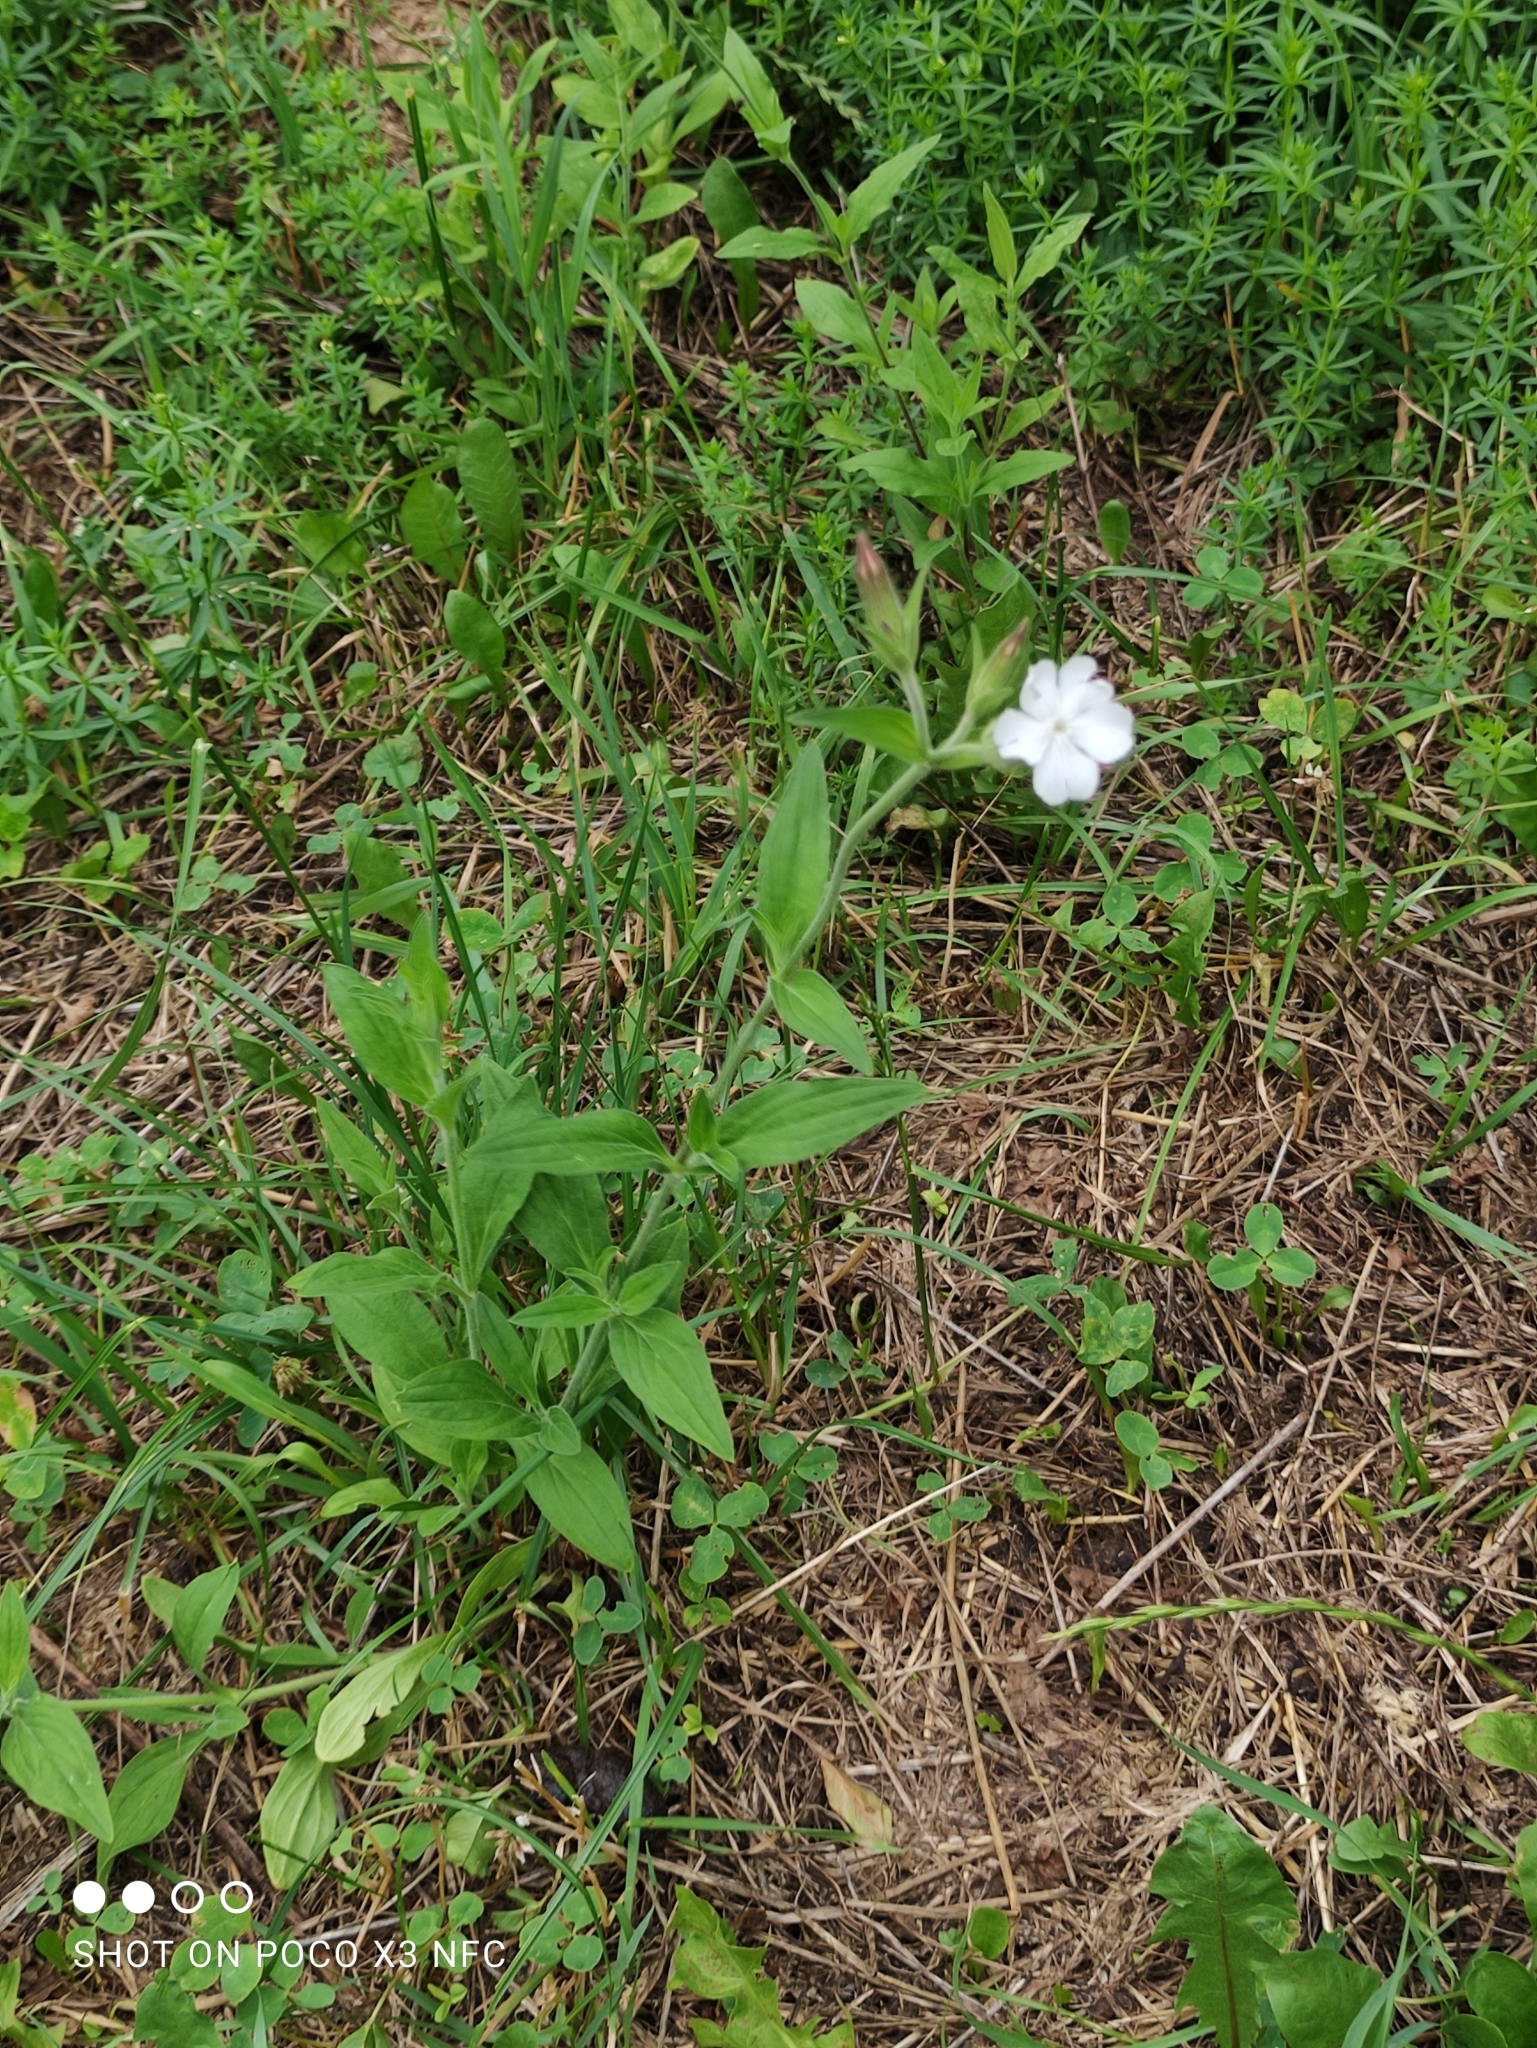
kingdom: Plantae
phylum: Tracheophyta
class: Magnoliopsida
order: Caryophyllales
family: Caryophyllaceae
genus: Silene
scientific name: Silene latifolia
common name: White campion
